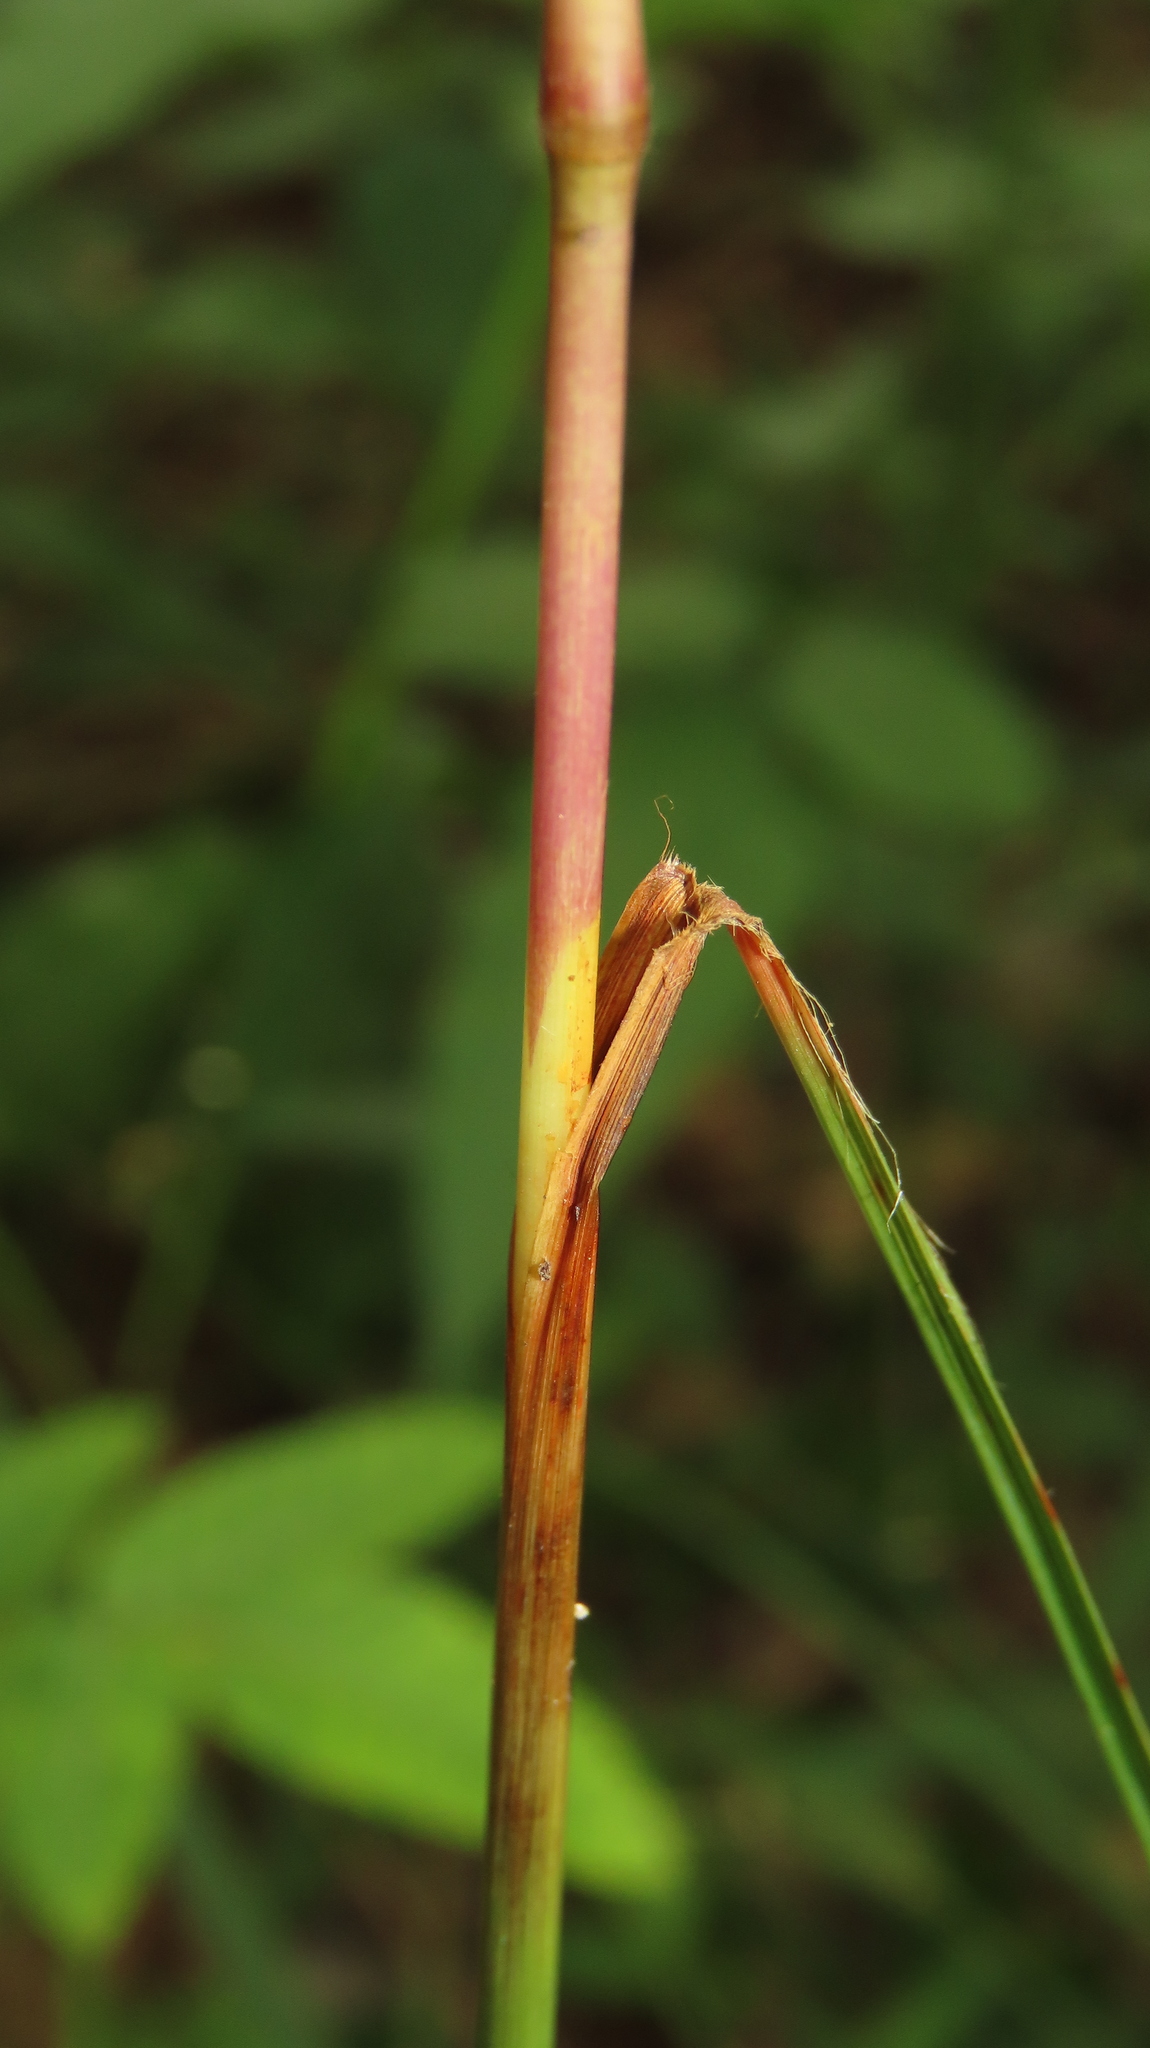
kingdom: Plantae
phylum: Tracheophyta
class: Liliopsida
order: Poales
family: Poaceae
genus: Saccharum
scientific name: Saccharum formosanum
